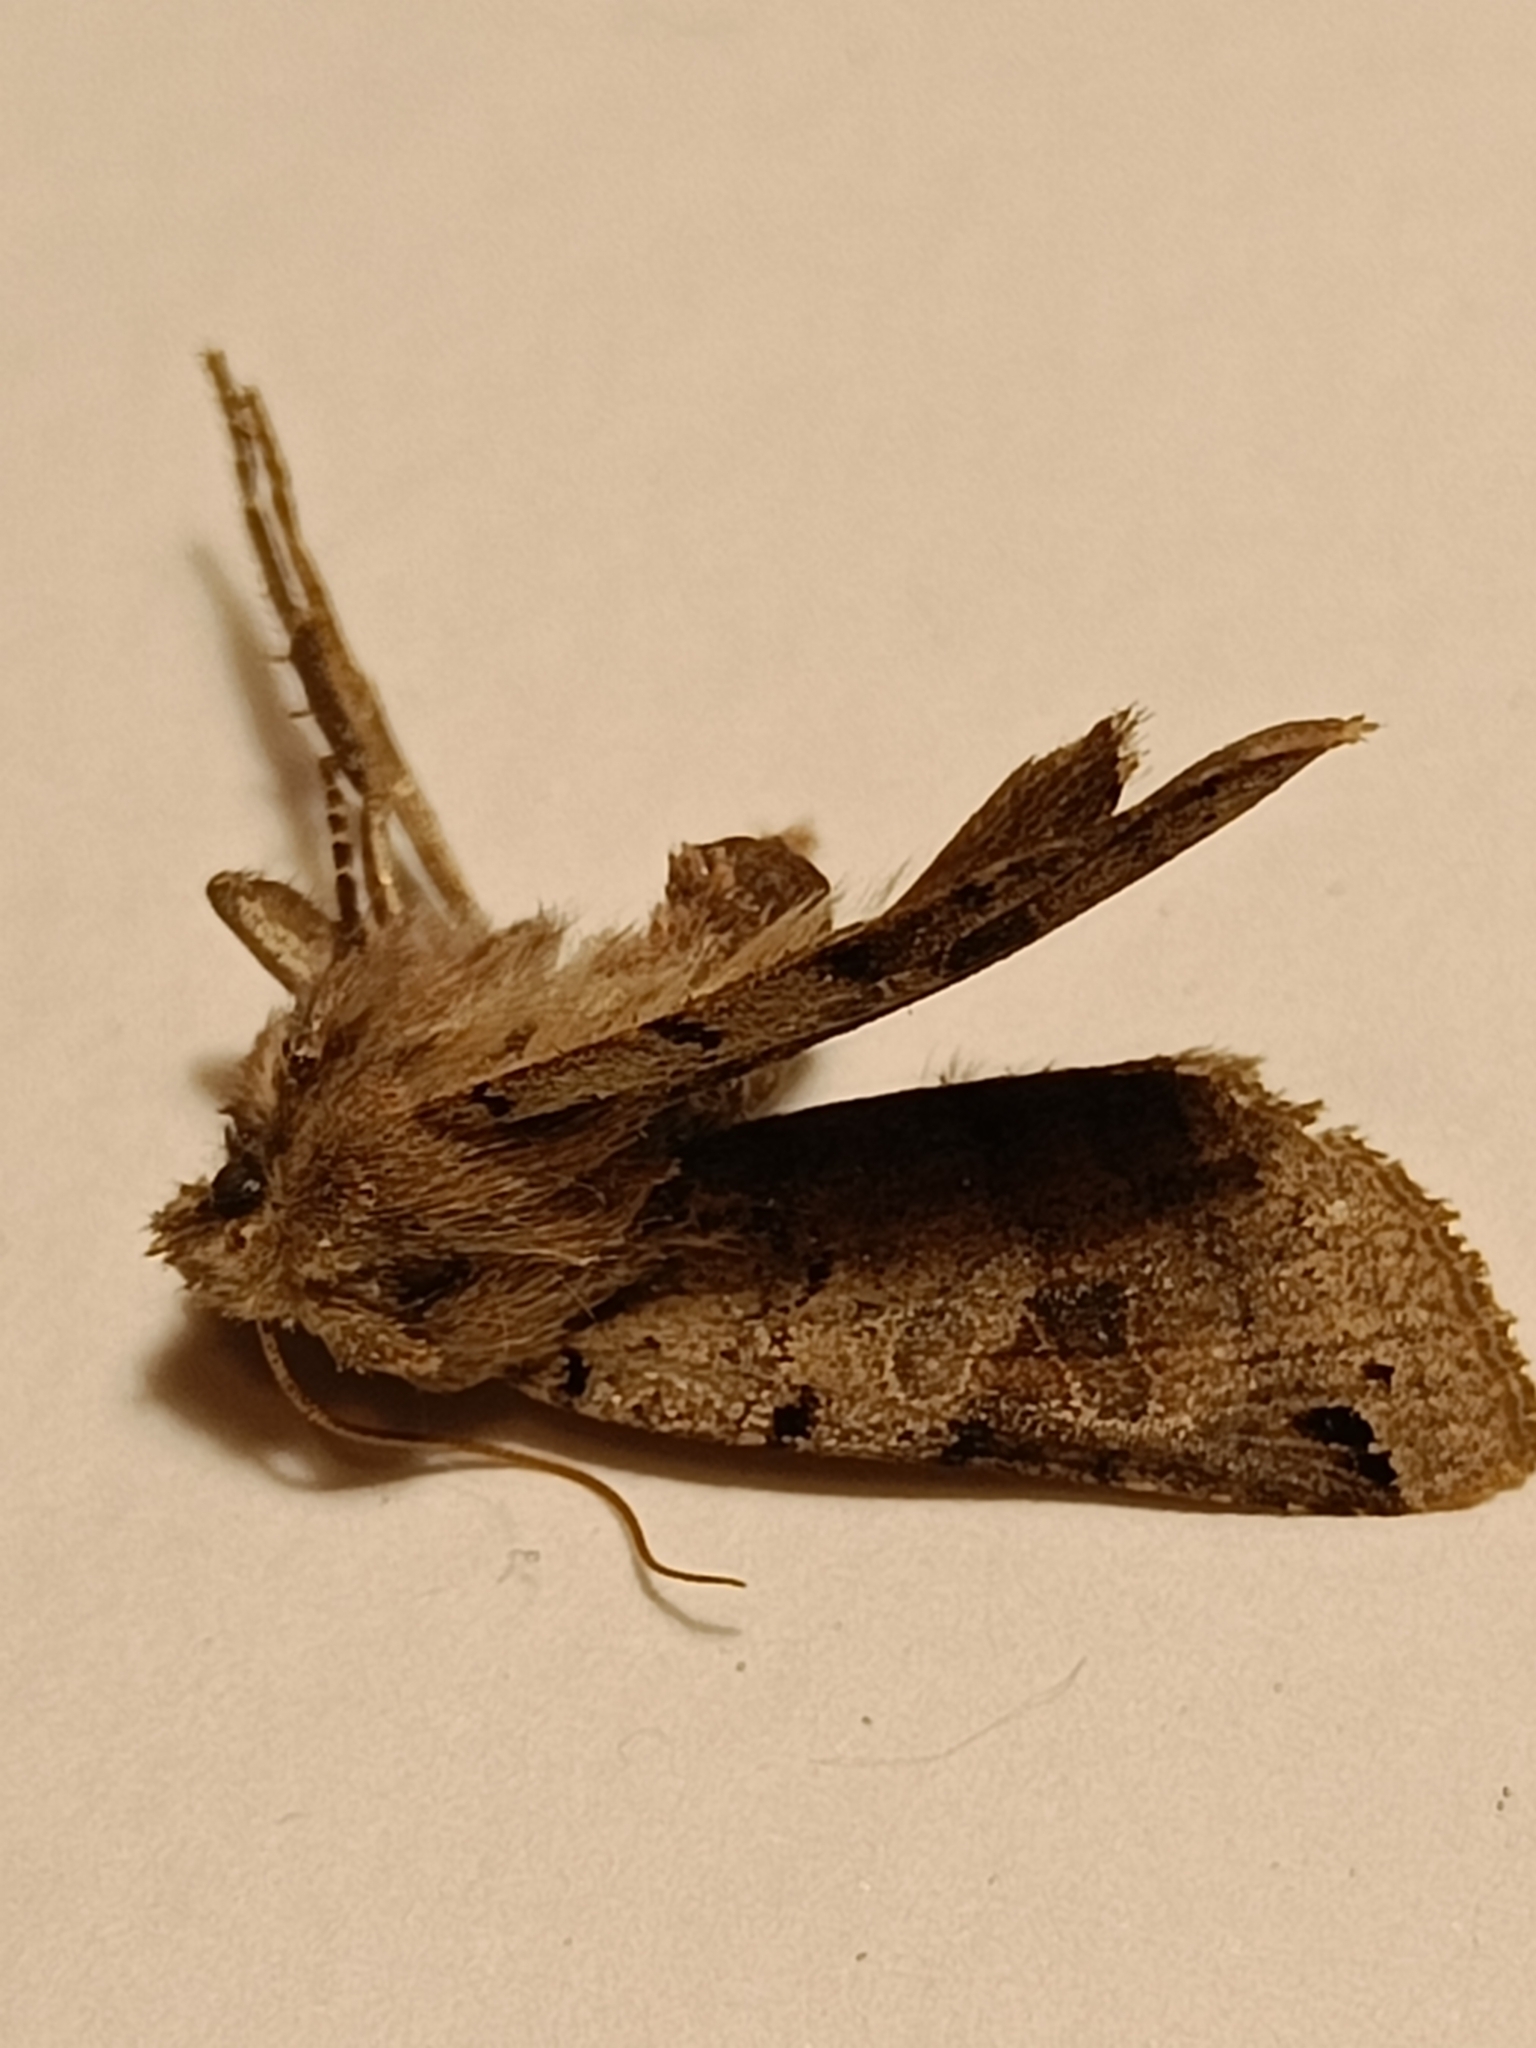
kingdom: Animalia
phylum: Arthropoda
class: Insecta
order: Lepidoptera
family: Noctuidae
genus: Agrochola
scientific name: Agrochola litura
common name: Brown-spot pinion
